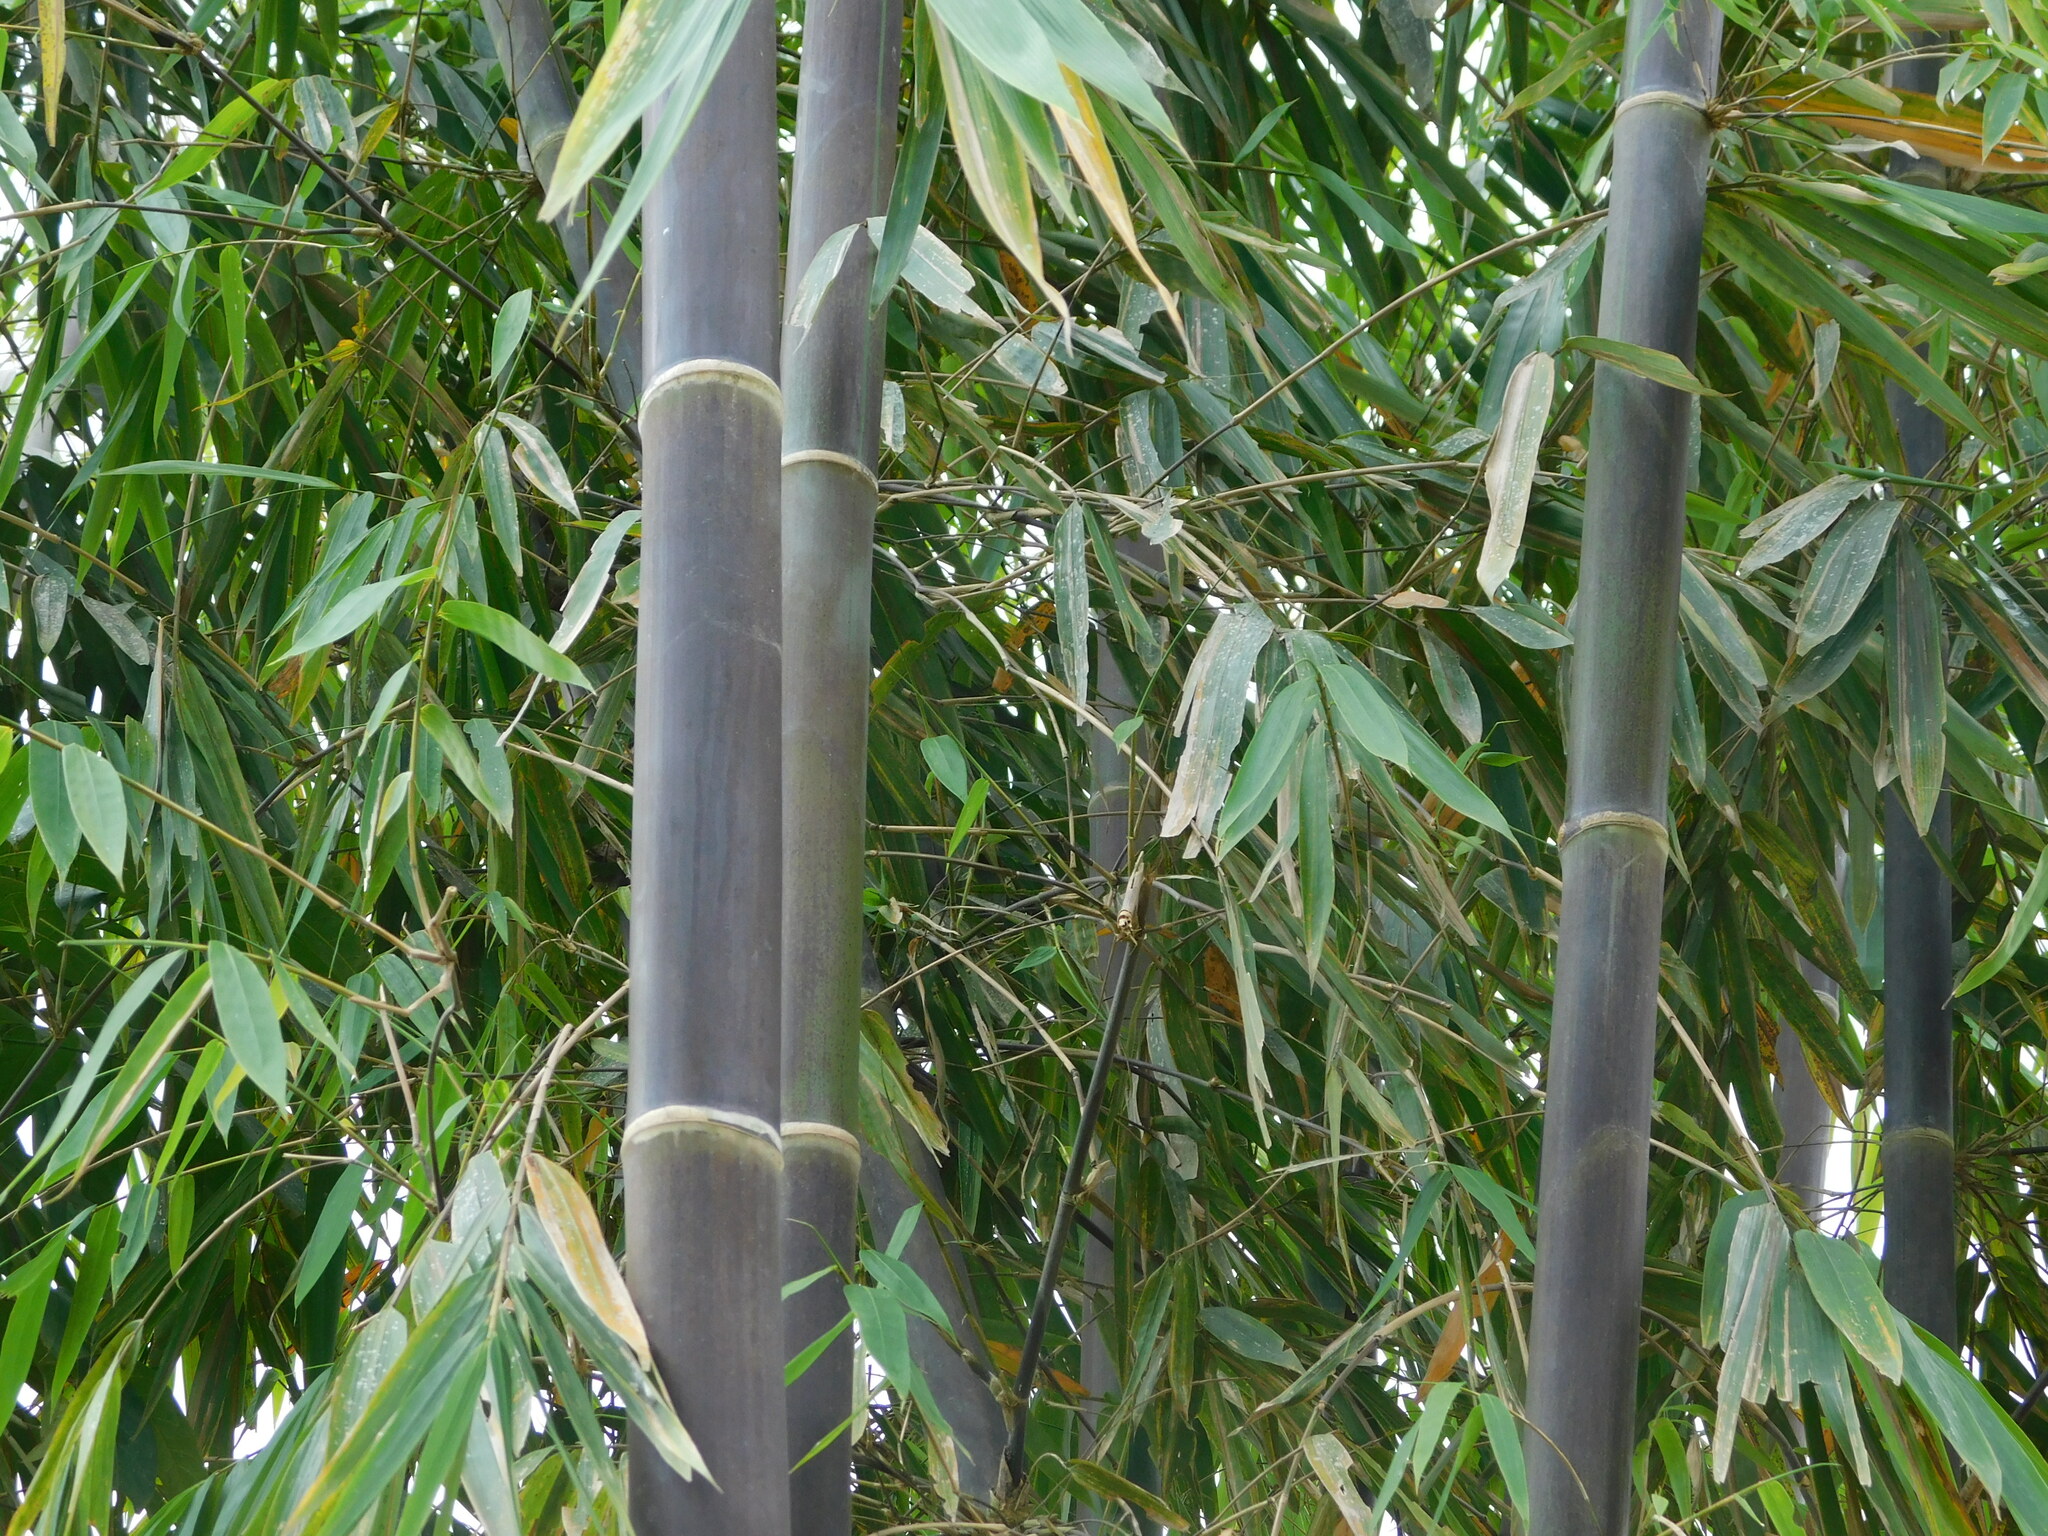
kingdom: Plantae
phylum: Tracheophyta
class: Liliopsida
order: Poales
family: Poaceae
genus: Gigantochloa
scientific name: Gigantochloa atroviolacea
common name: Black bamboo
